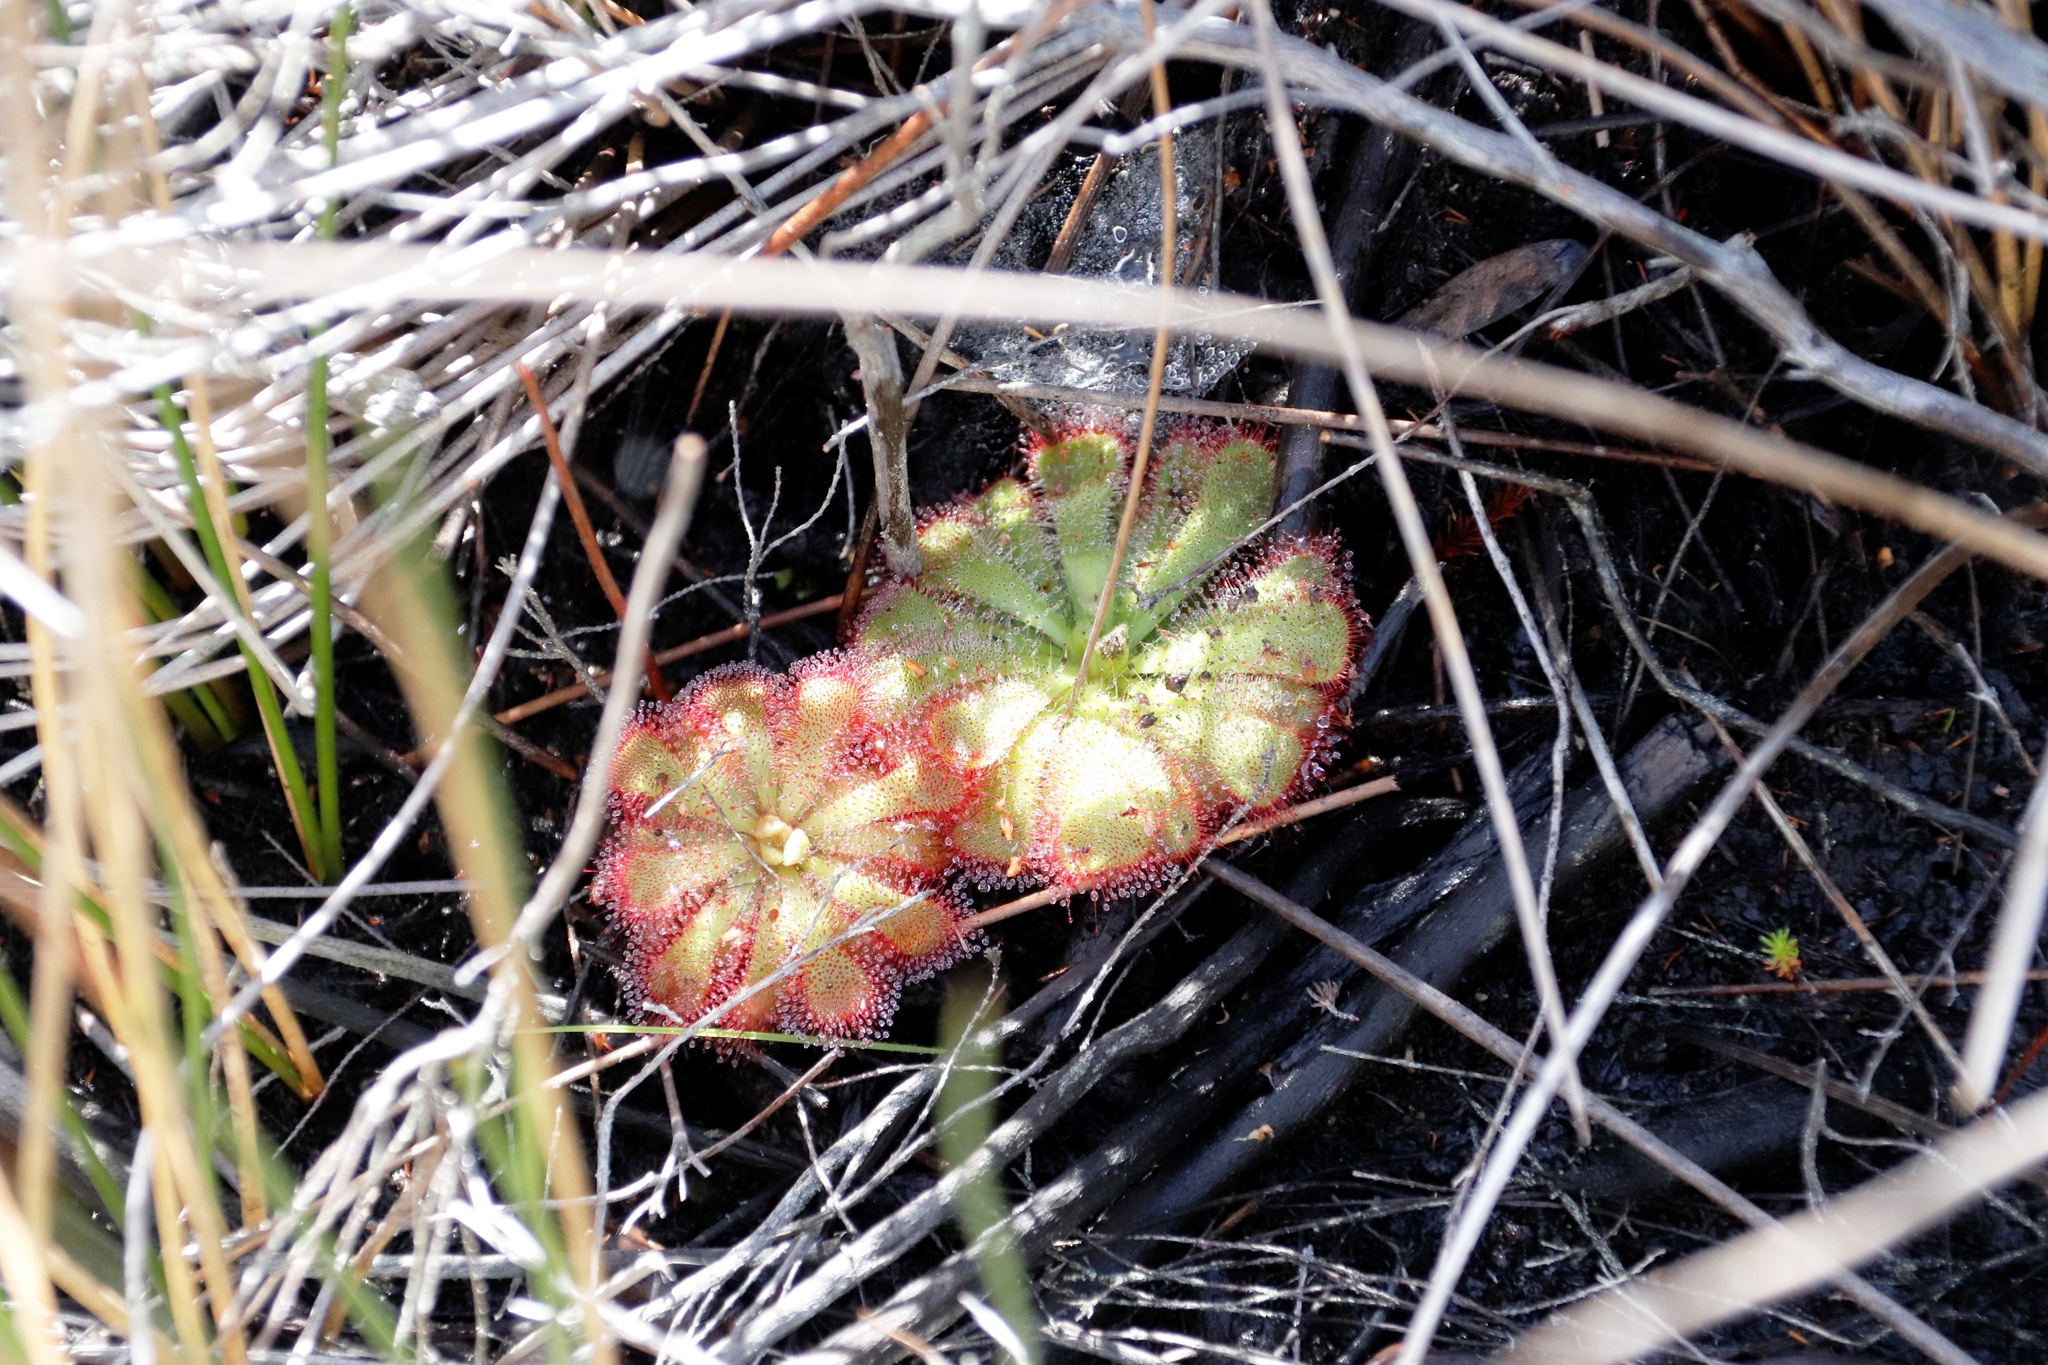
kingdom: Plantae
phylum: Tracheophyta
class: Magnoliopsida
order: Caryophyllales
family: Droseraceae
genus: Drosera
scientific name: Drosera aliciae
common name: Alice sundew
